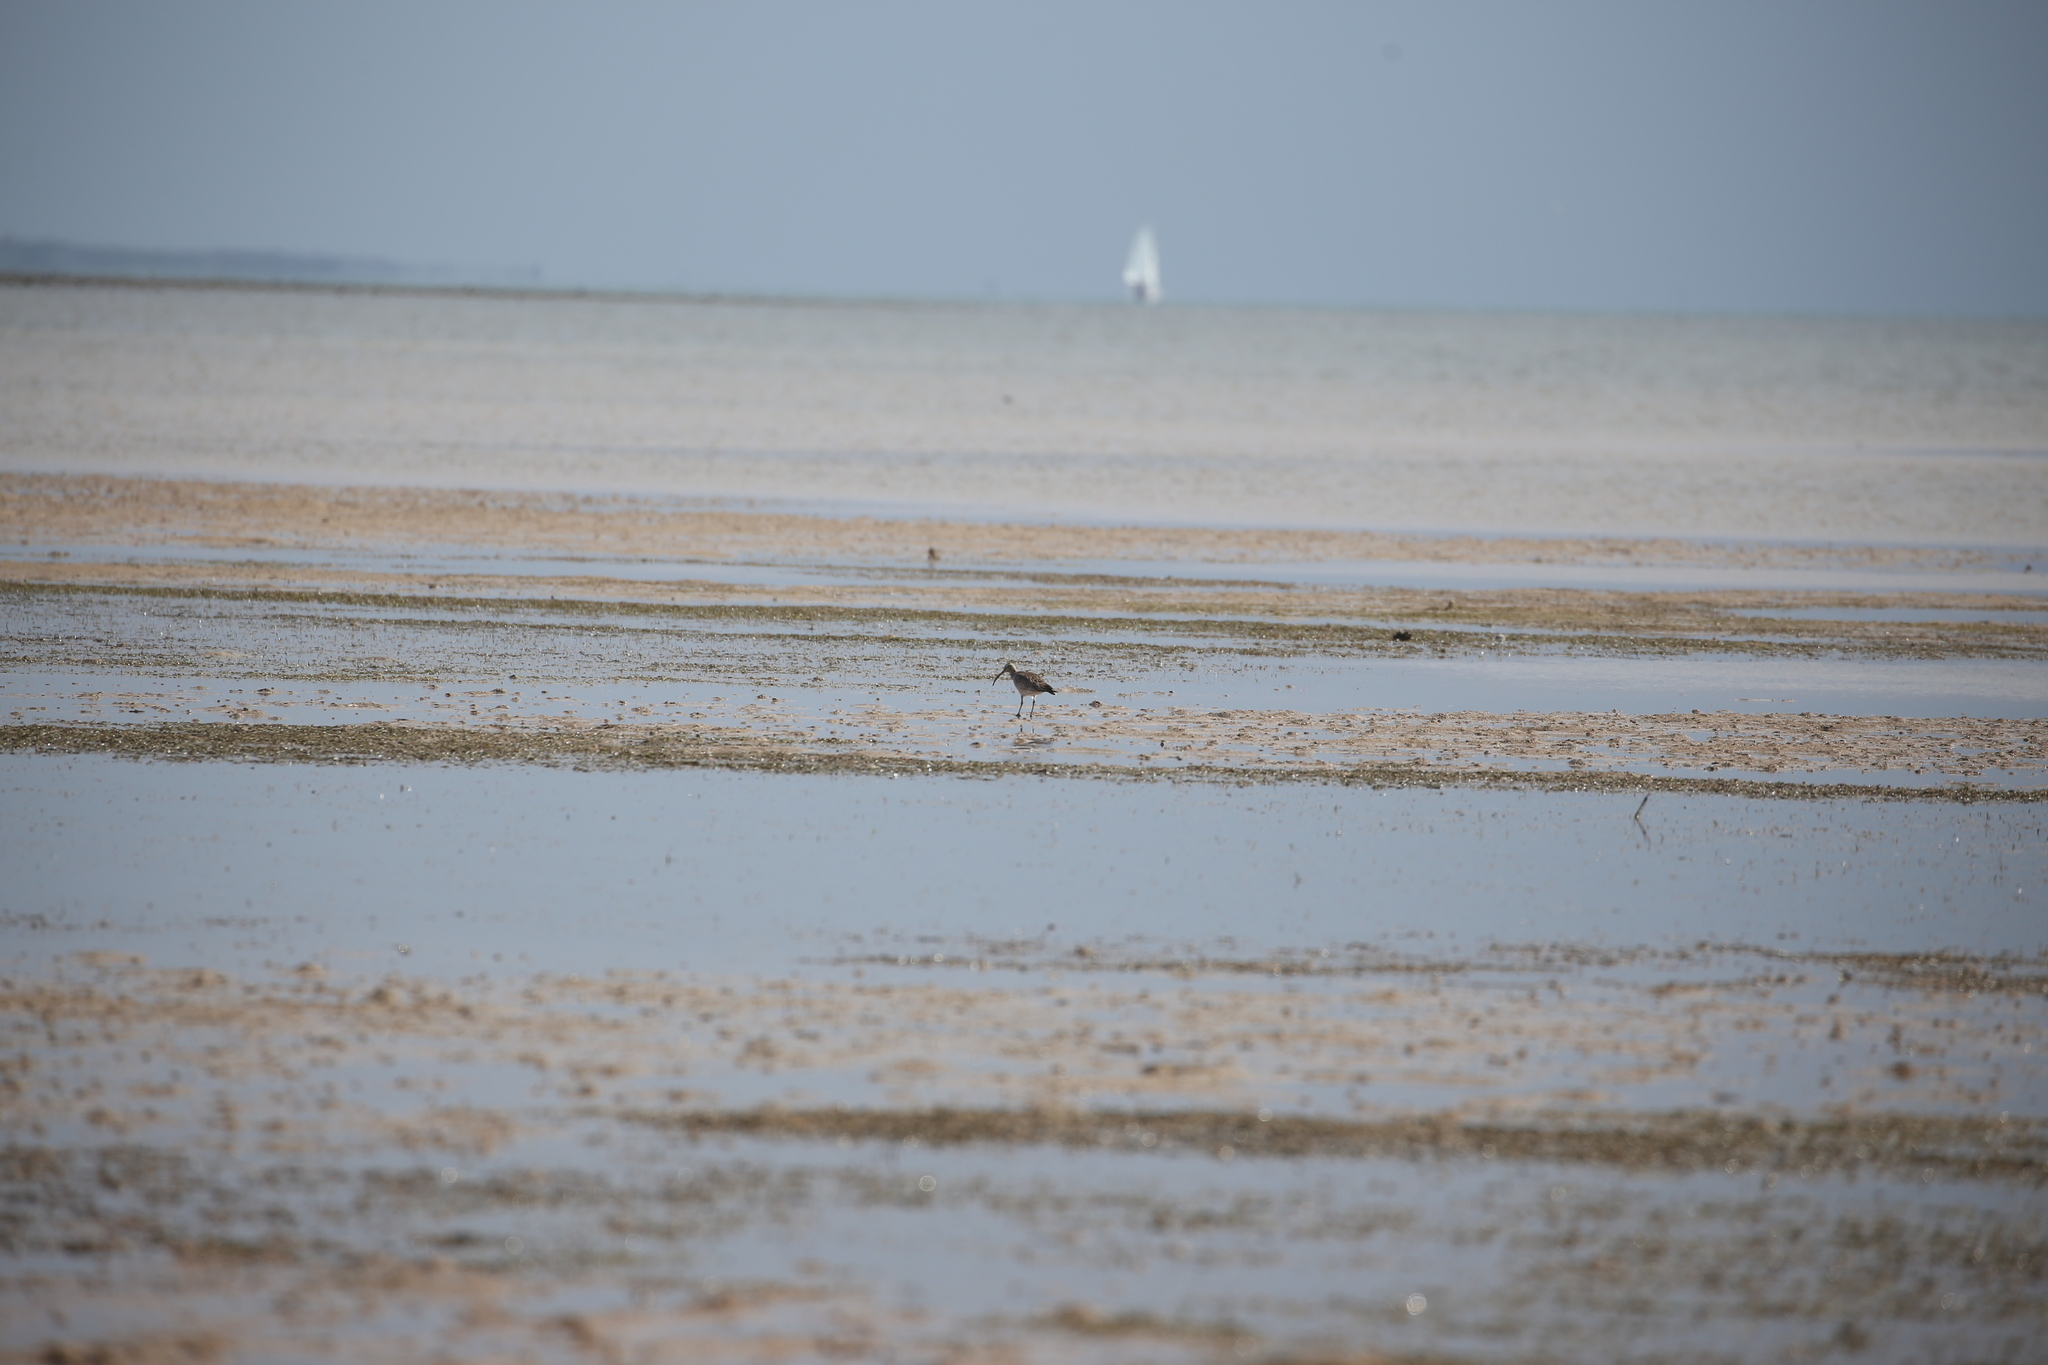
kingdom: Animalia
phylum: Chordata
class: Aves
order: Charadriiformes
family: Scolopacidae
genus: Numenius
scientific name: Numenius phaeopus
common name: Whimbrel
